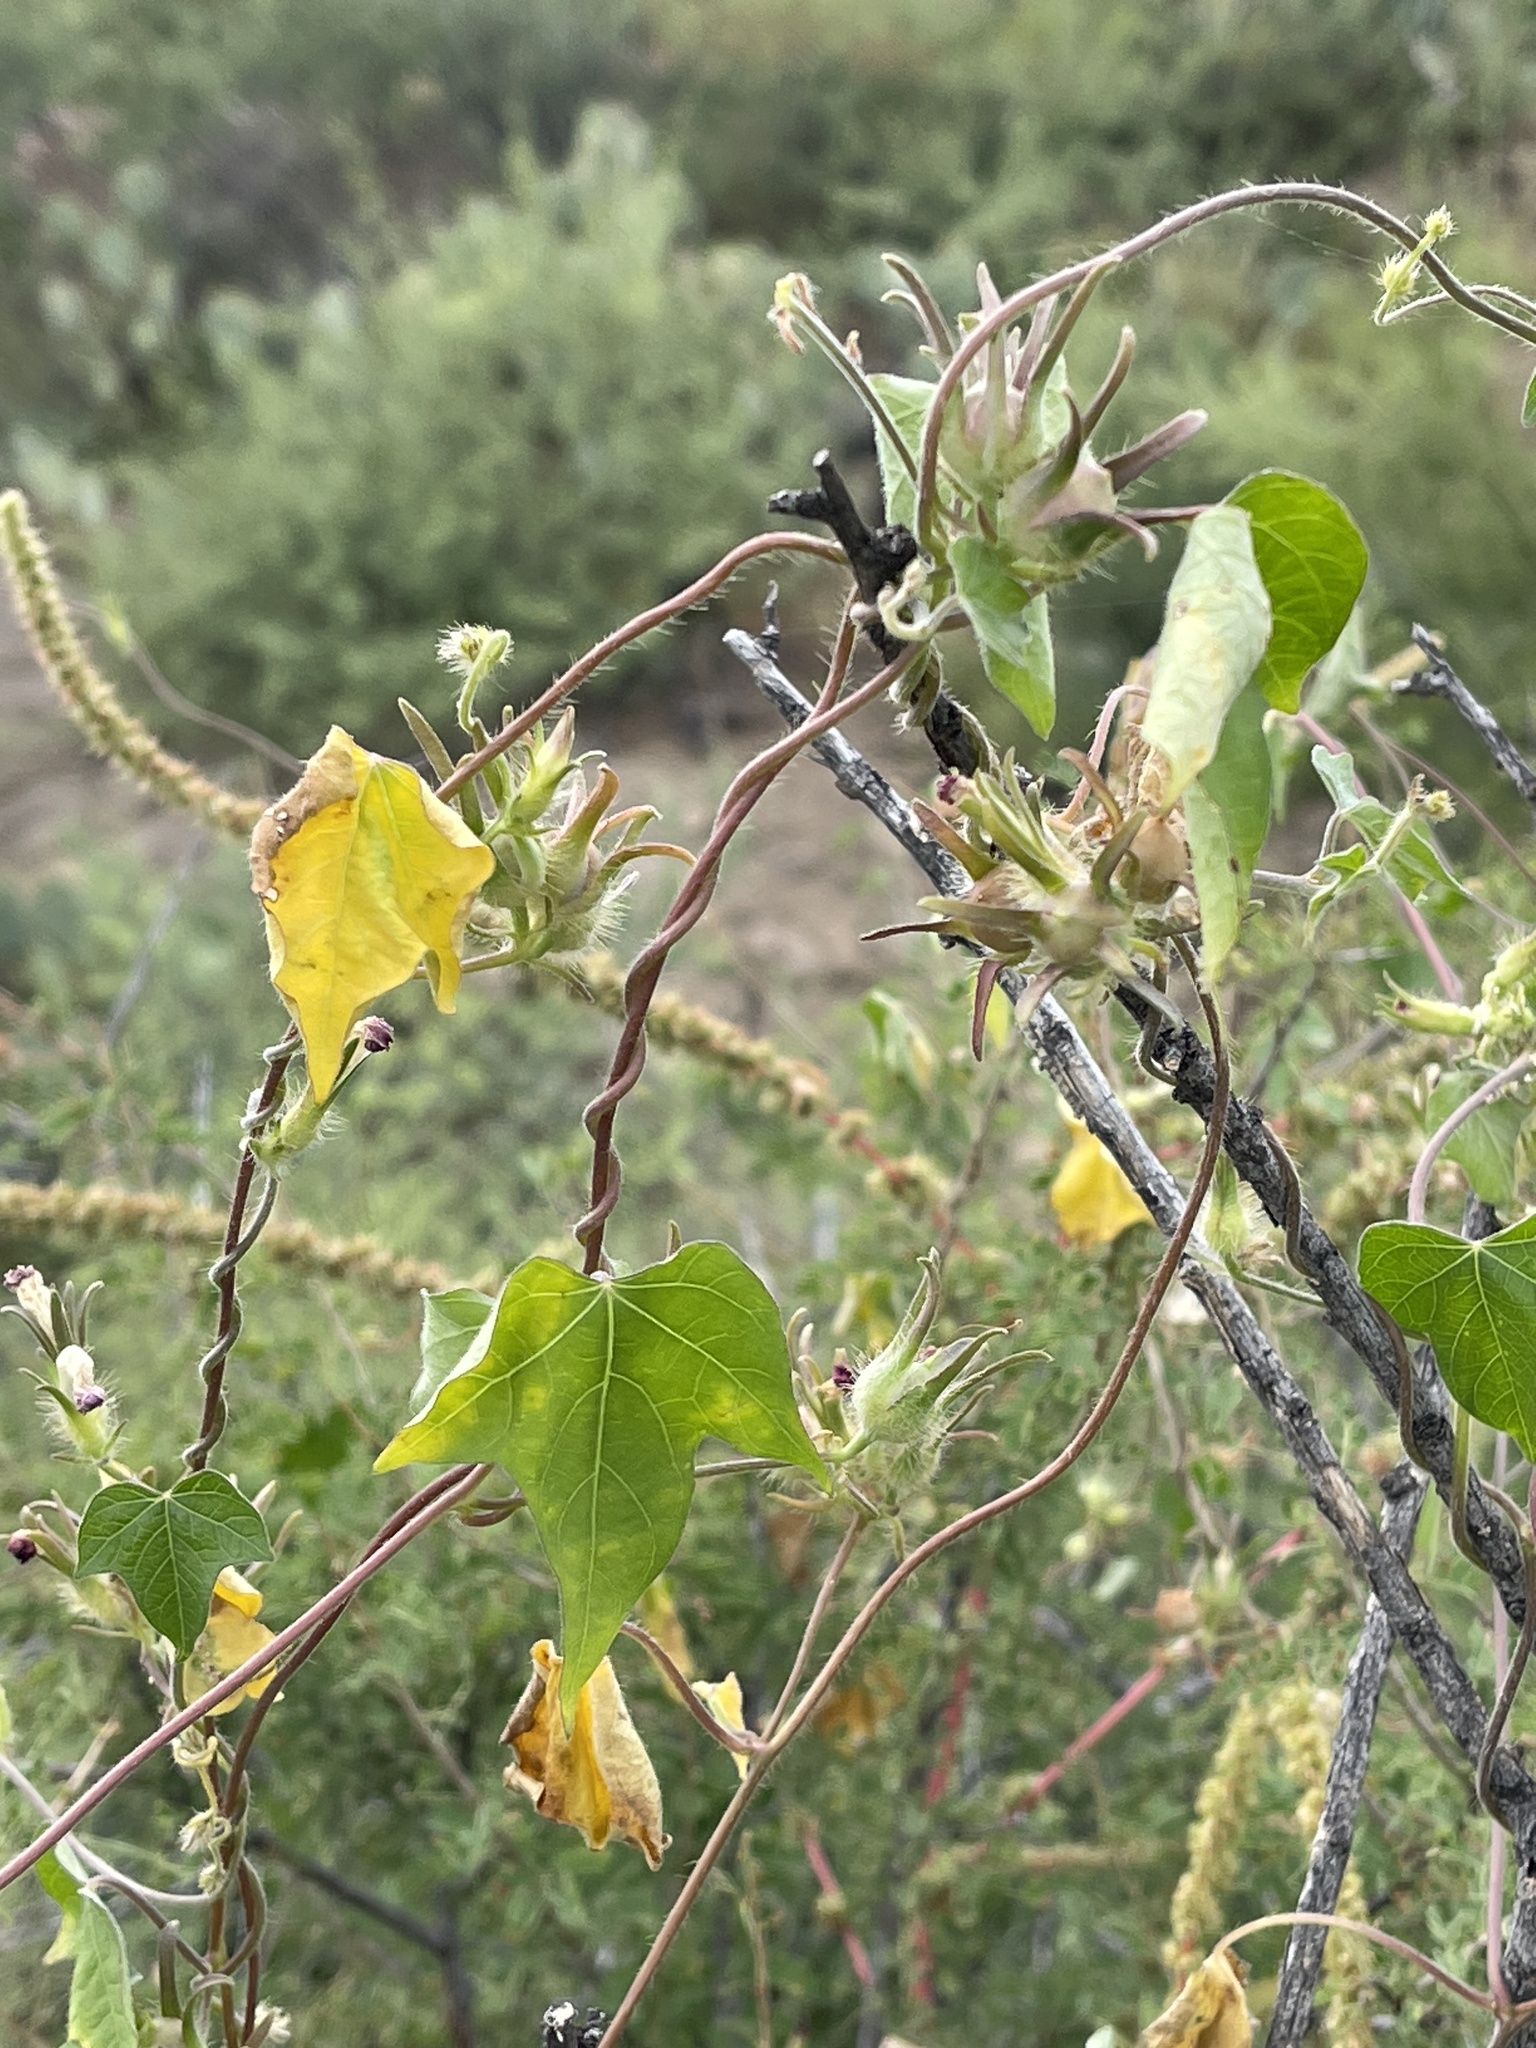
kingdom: Plantae
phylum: Tracheophyta
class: Magnoliopsida
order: Solanales
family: Convolvulaceae
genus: Ipomoea
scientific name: Ipomoea hederacea
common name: Ivy-leaved morning-glory
